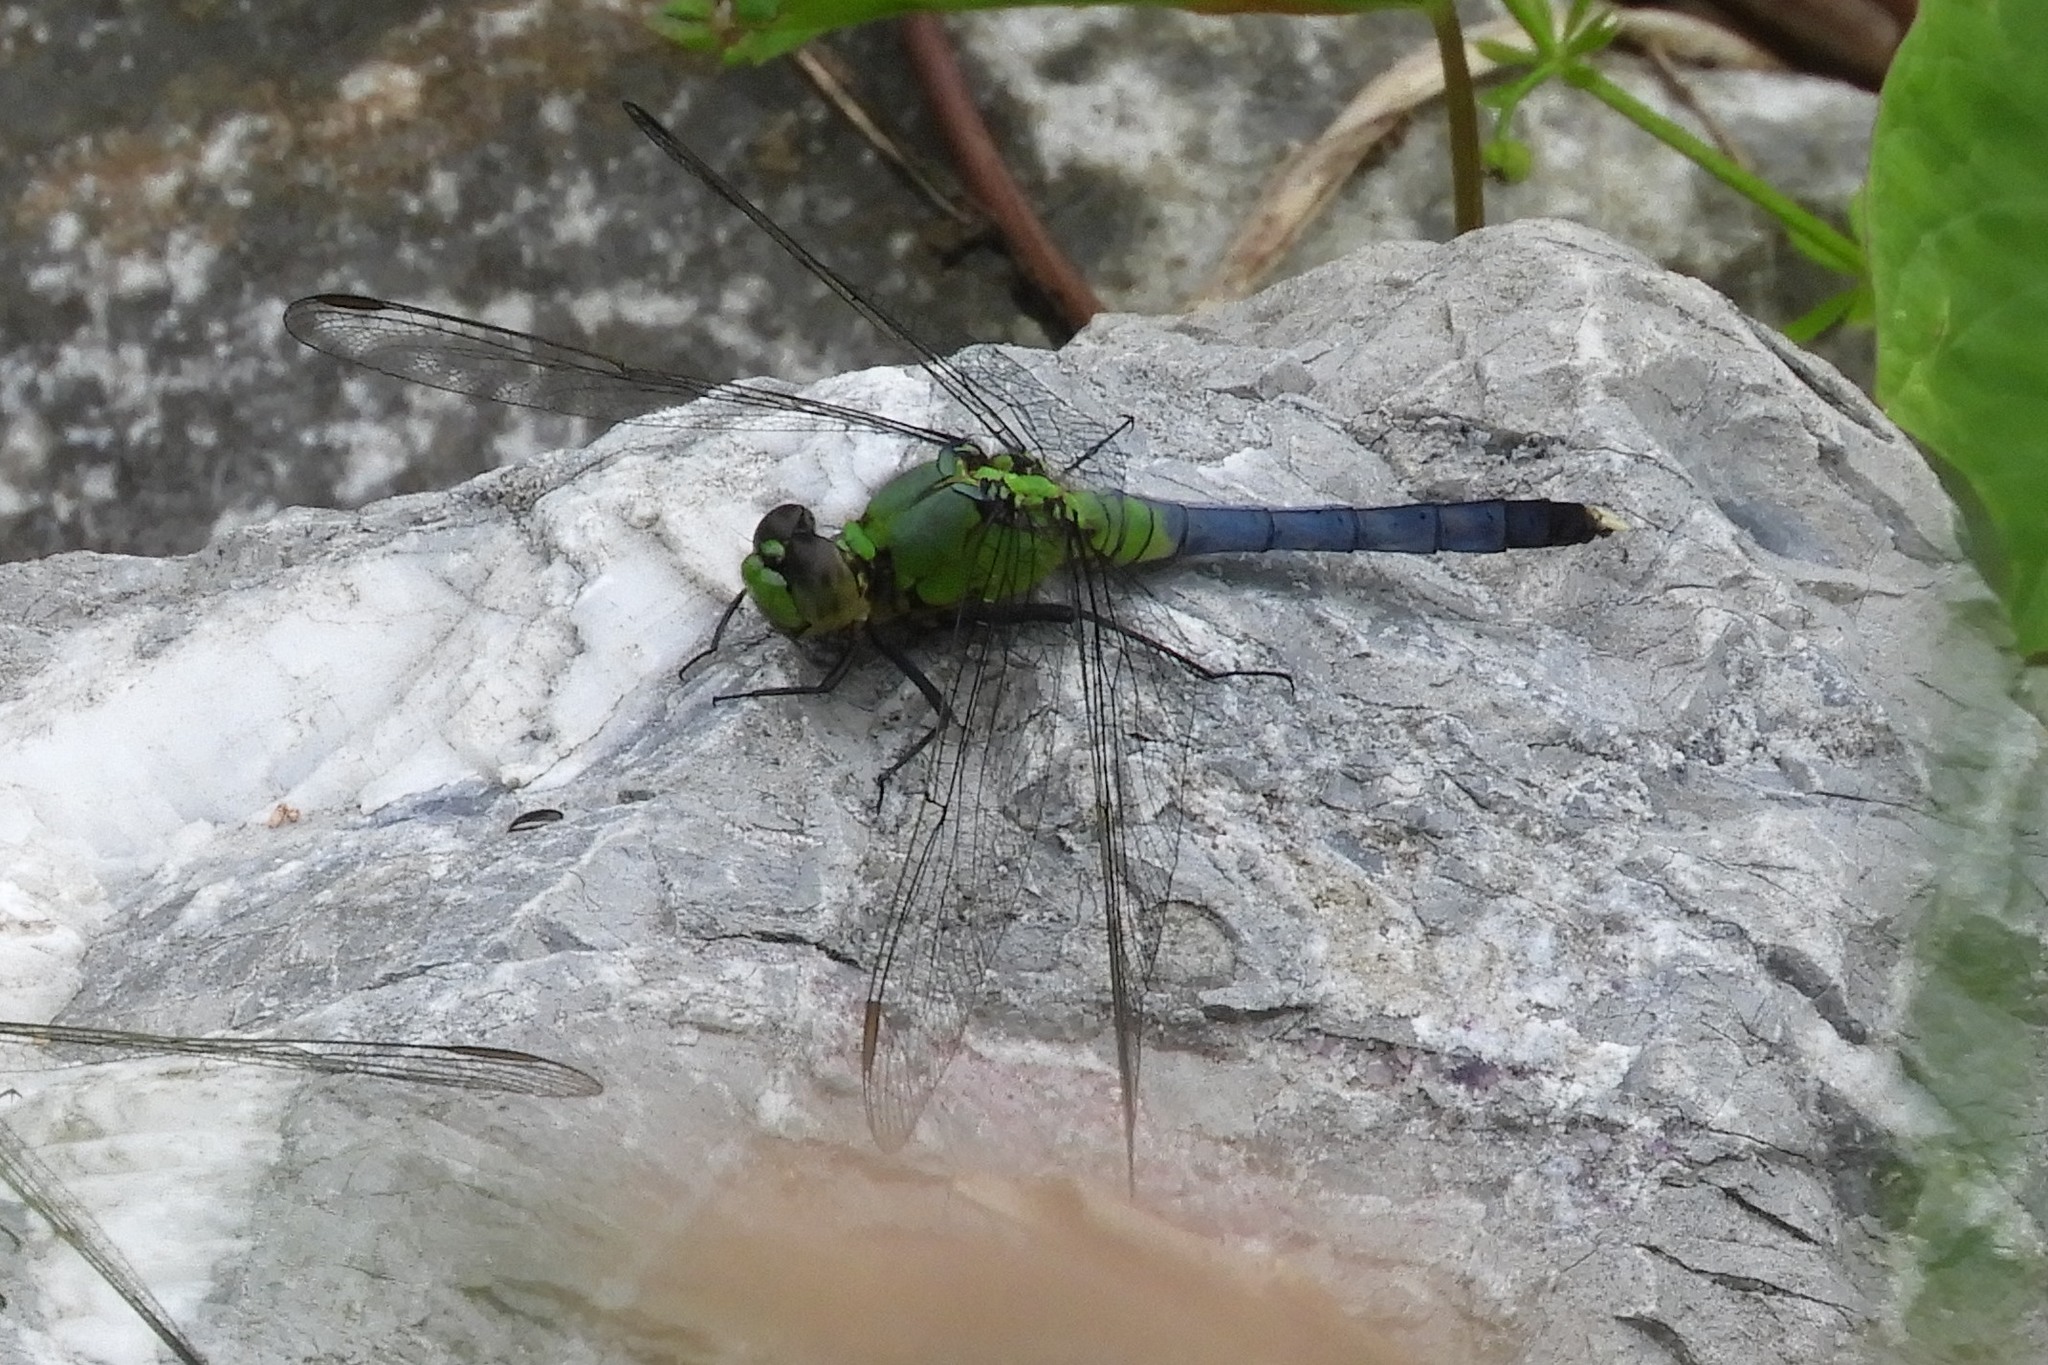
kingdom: Animalia
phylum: Arthropoda
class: Insecta
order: Odonata
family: Libellulidae
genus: Erythemis
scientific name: Erythemis simplicicollis
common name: Eastern pondhawk
